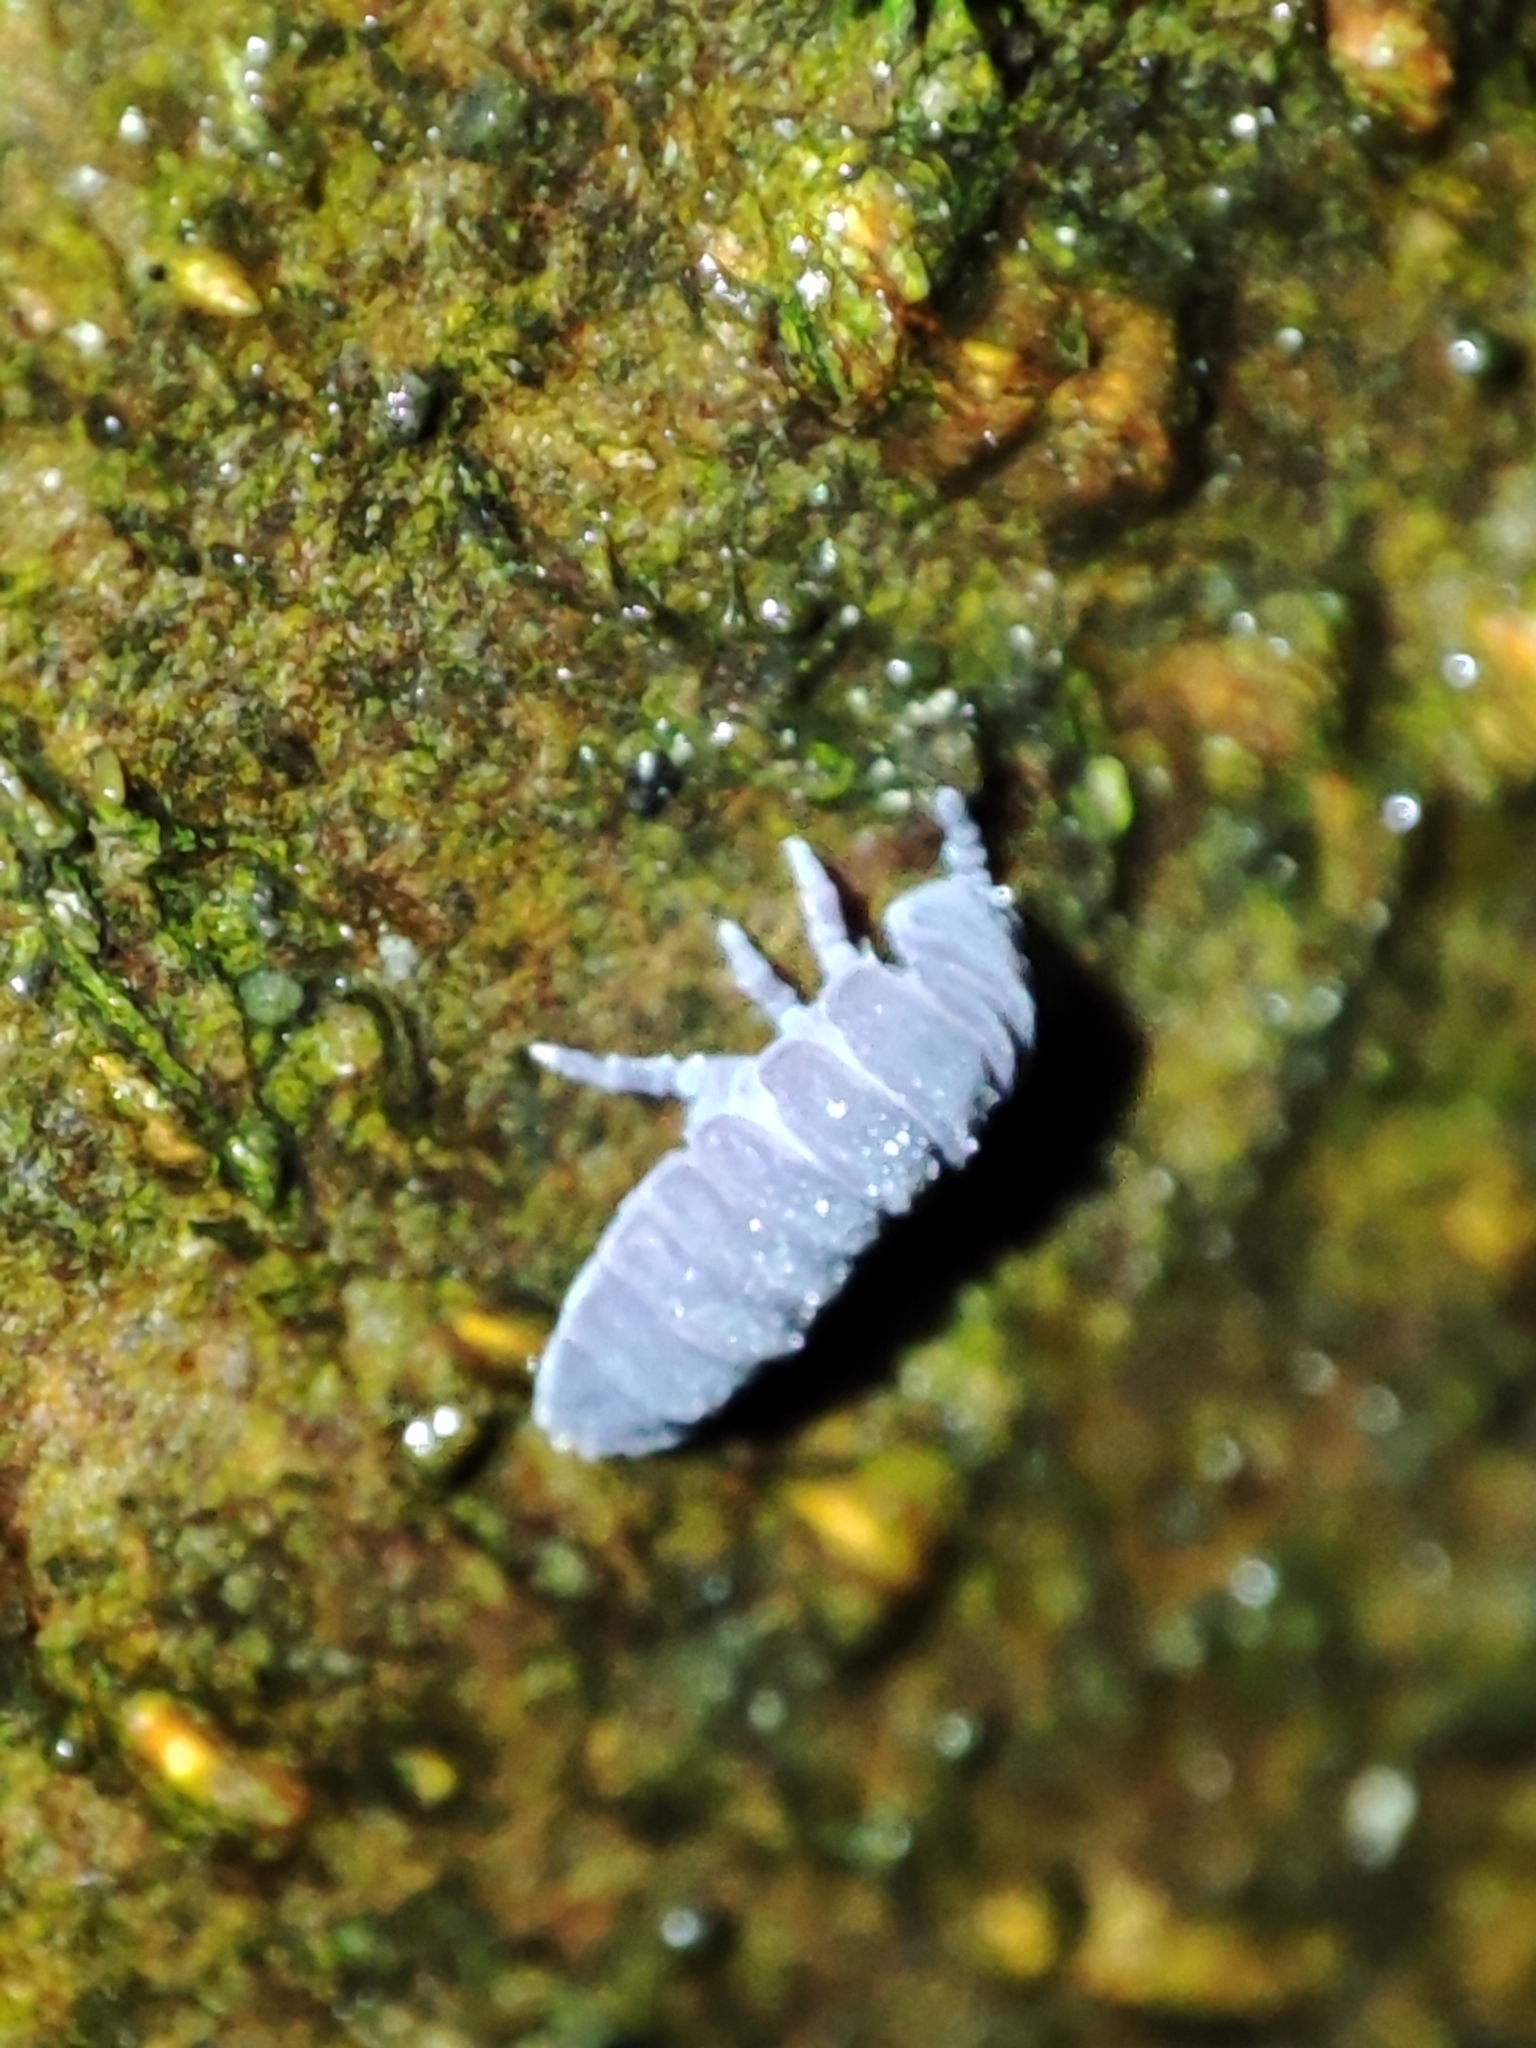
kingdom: Animalia
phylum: Arthropoda
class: Collembola
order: Poduromorpha
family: Onychiuridae
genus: Tetrodontophora
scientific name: Tetrodontophora bielanensis
